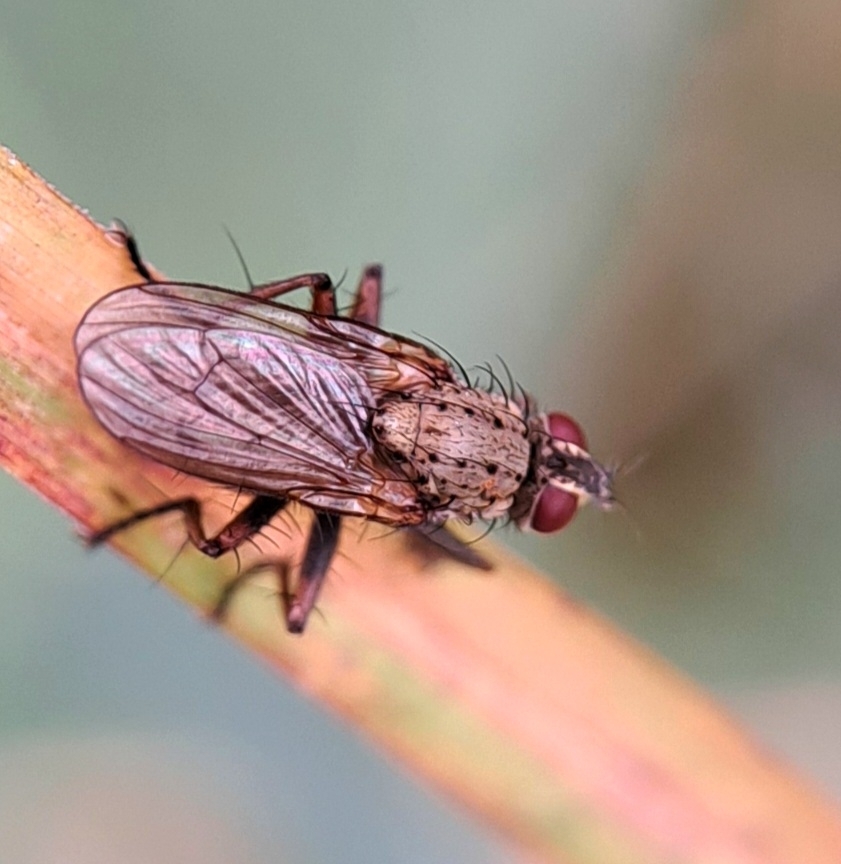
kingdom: Animalia
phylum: Arthropoda
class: Insecta
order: Diptera
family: Muscidae
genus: Coenosia
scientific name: Coenosia tigrina
